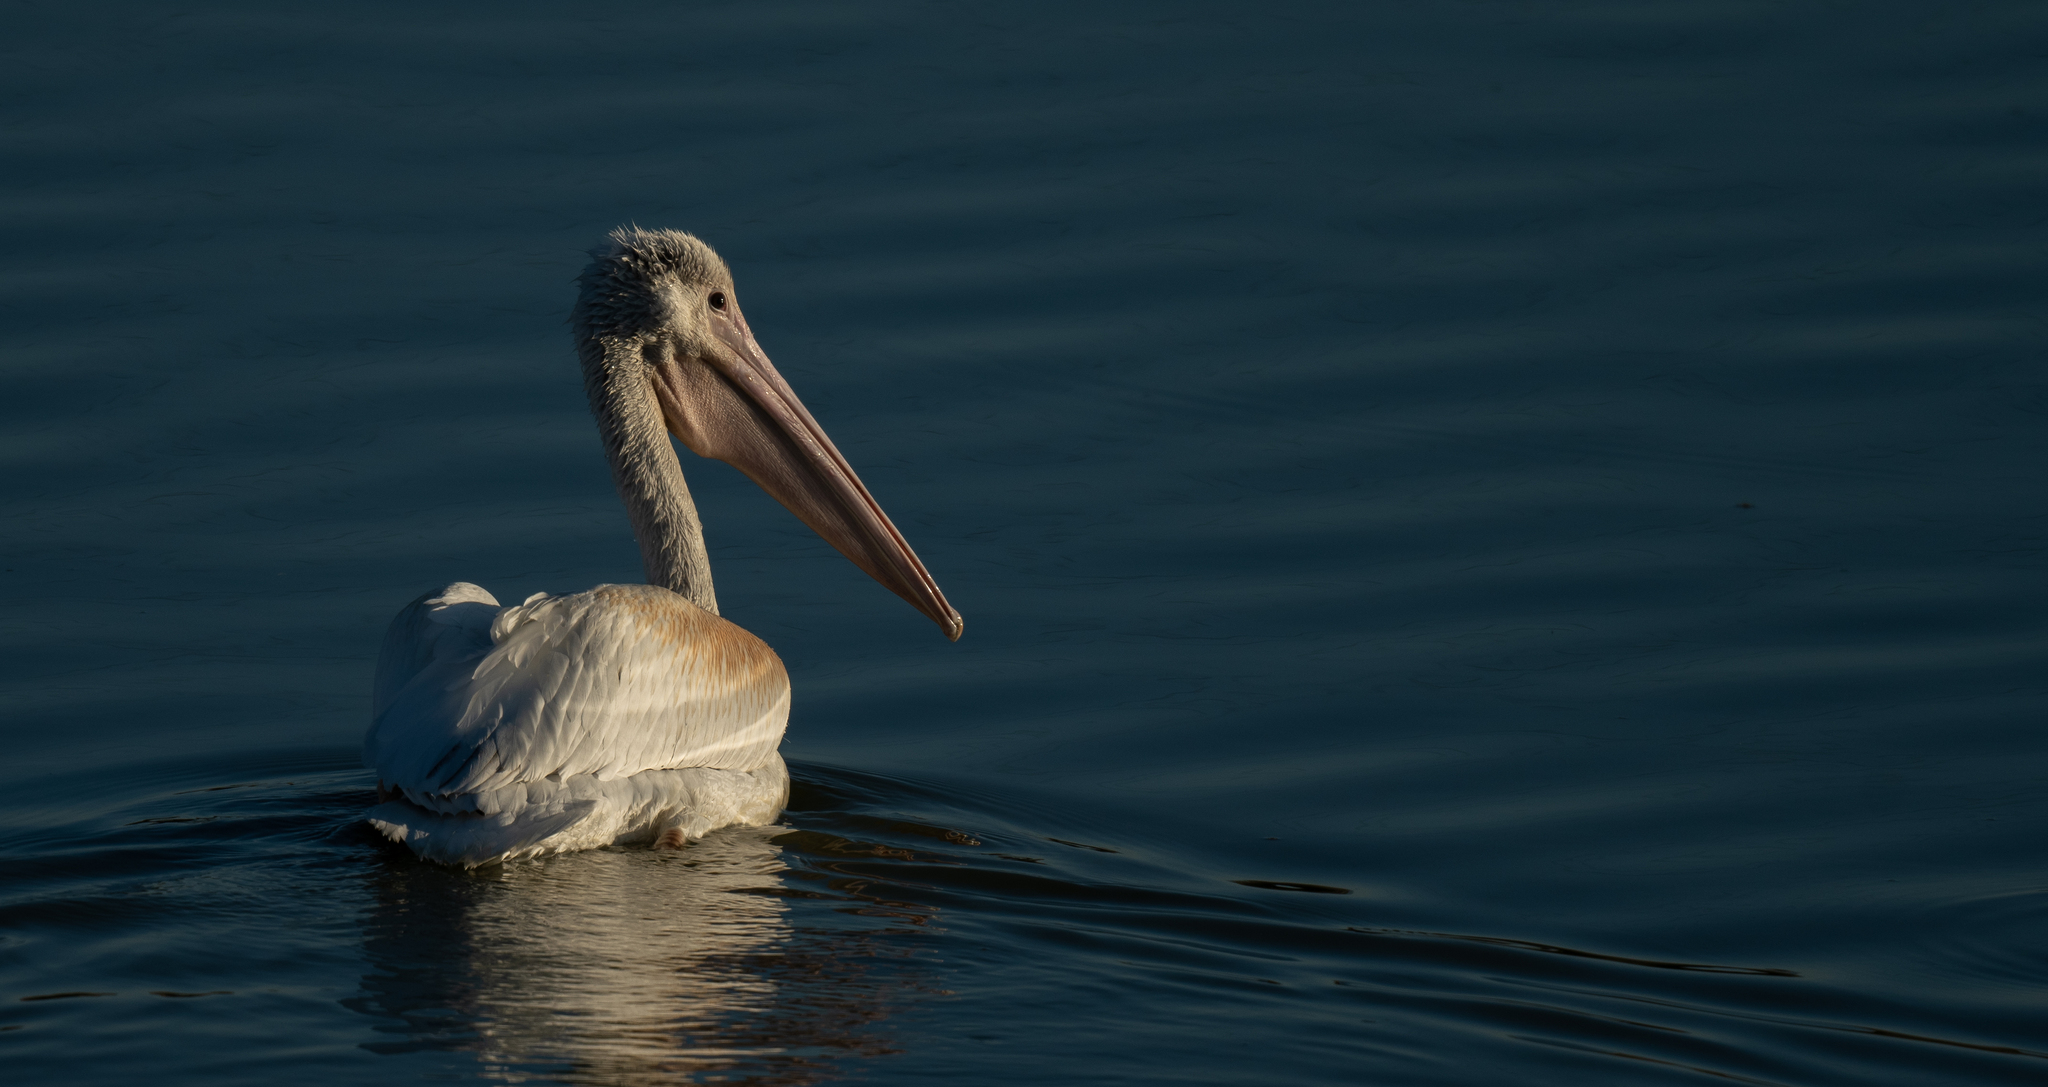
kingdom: Animalia
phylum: Chordata
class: Aves
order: Pelecaniformes
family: Pelecanidae
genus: Pelecanus
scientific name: Pelecanus erythrorhynchos
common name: American white pelican
